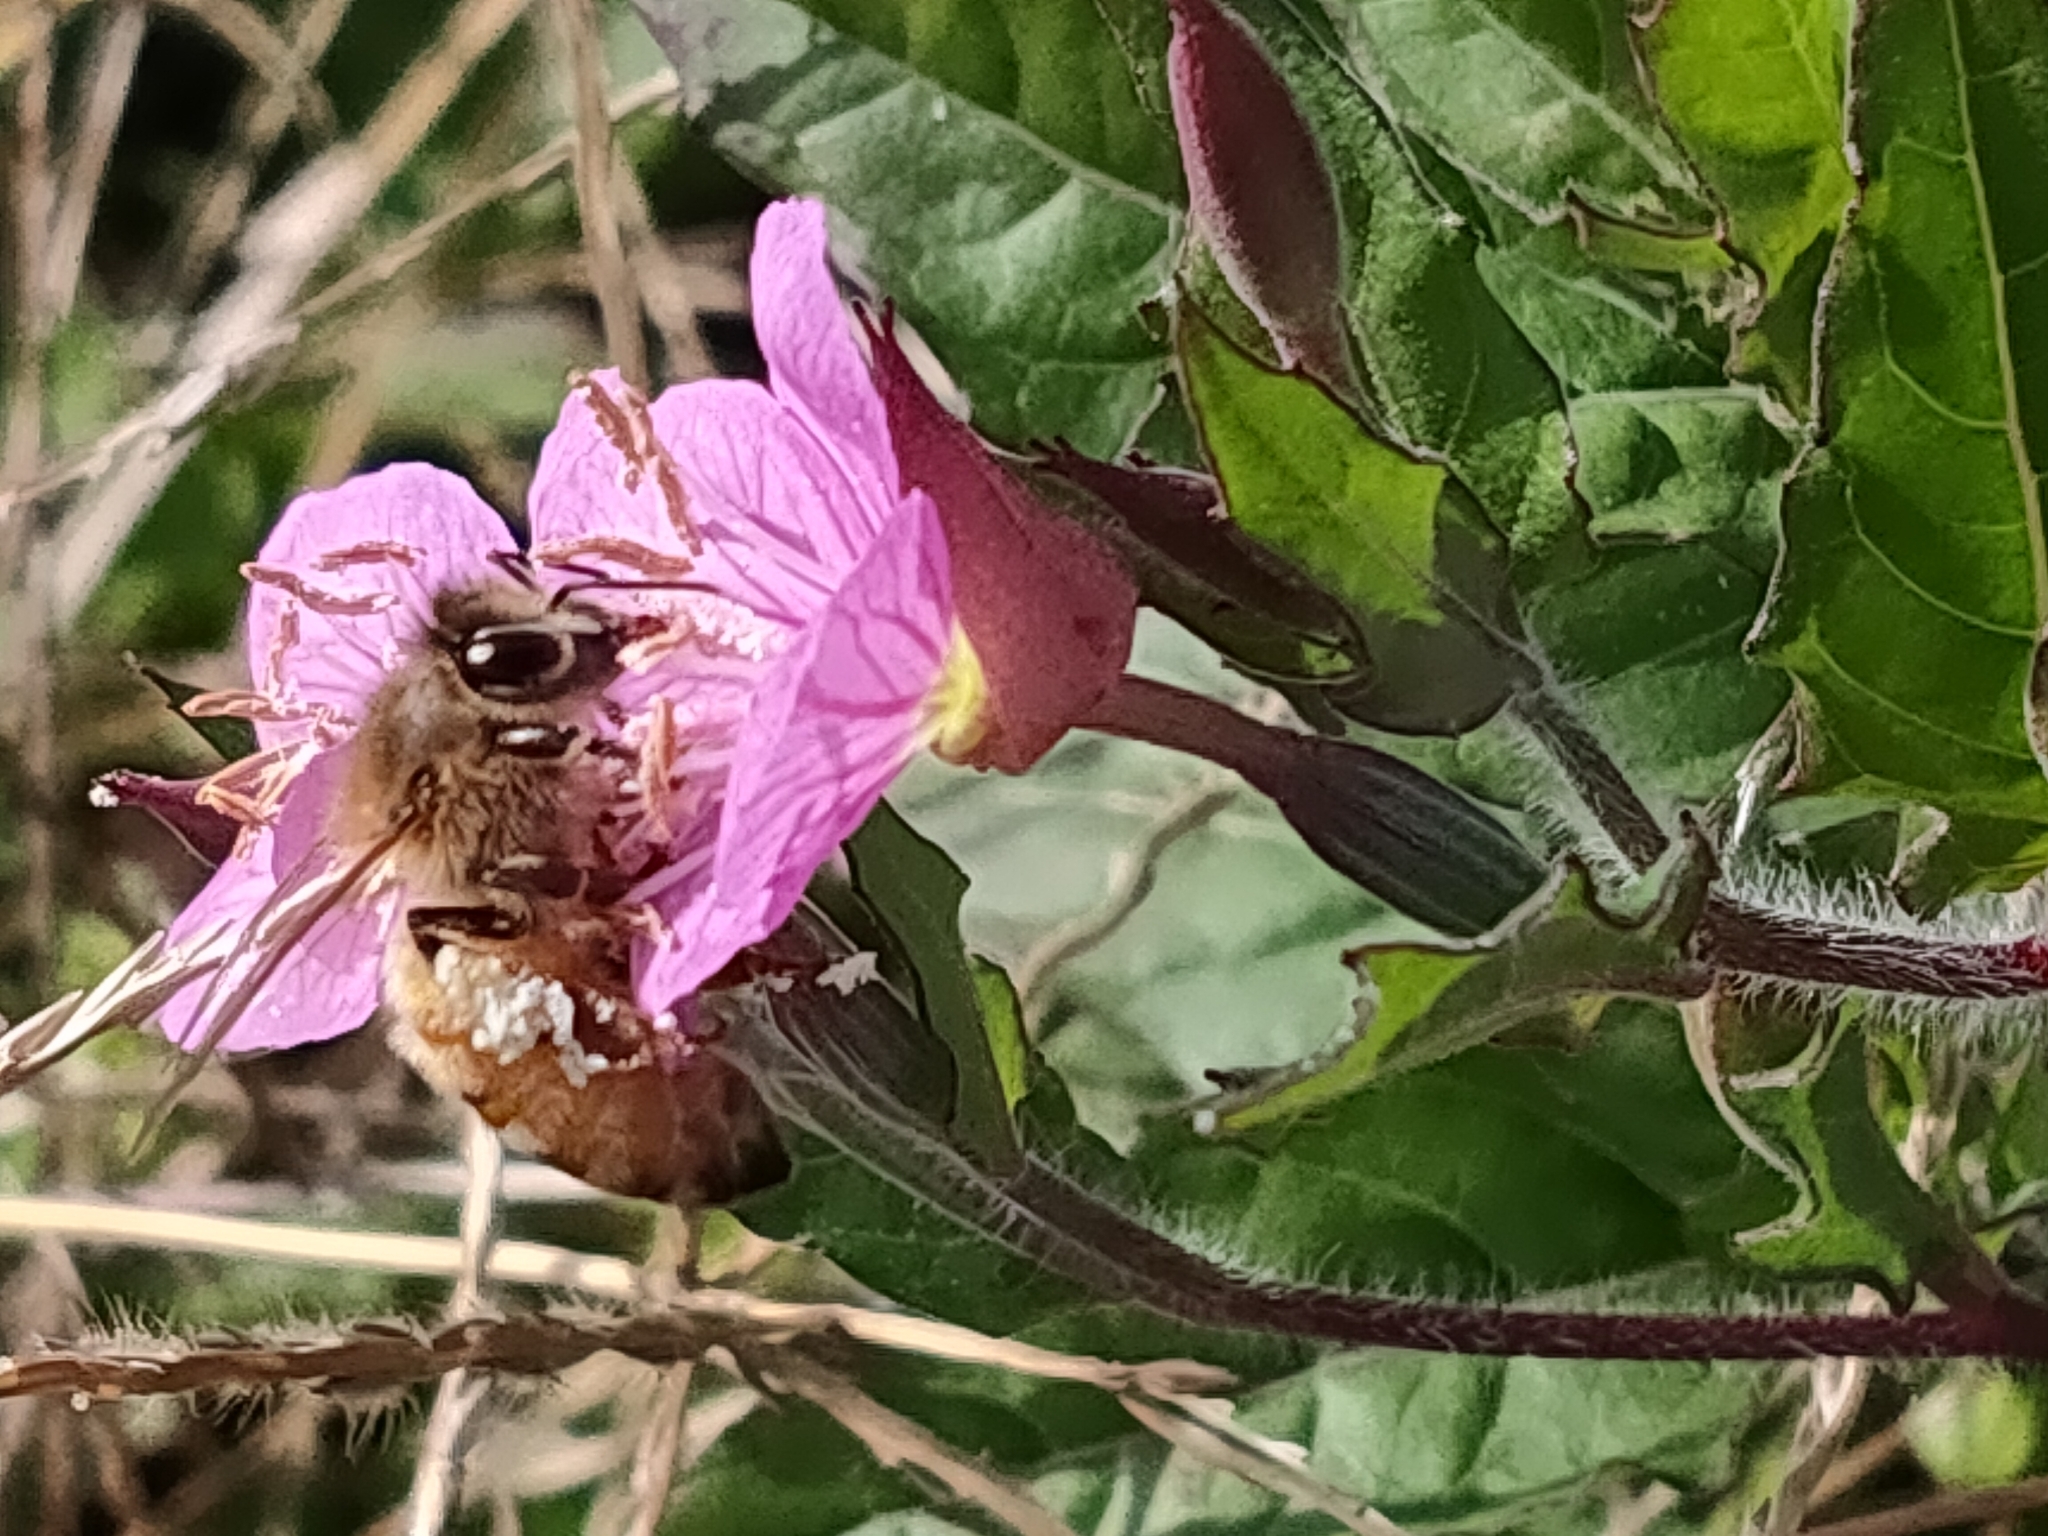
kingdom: Animalia
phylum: Arthropoda
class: Insecta
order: Hymenoptera
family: Apidae
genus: Apis
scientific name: Apis mellifera
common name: Honey bee
